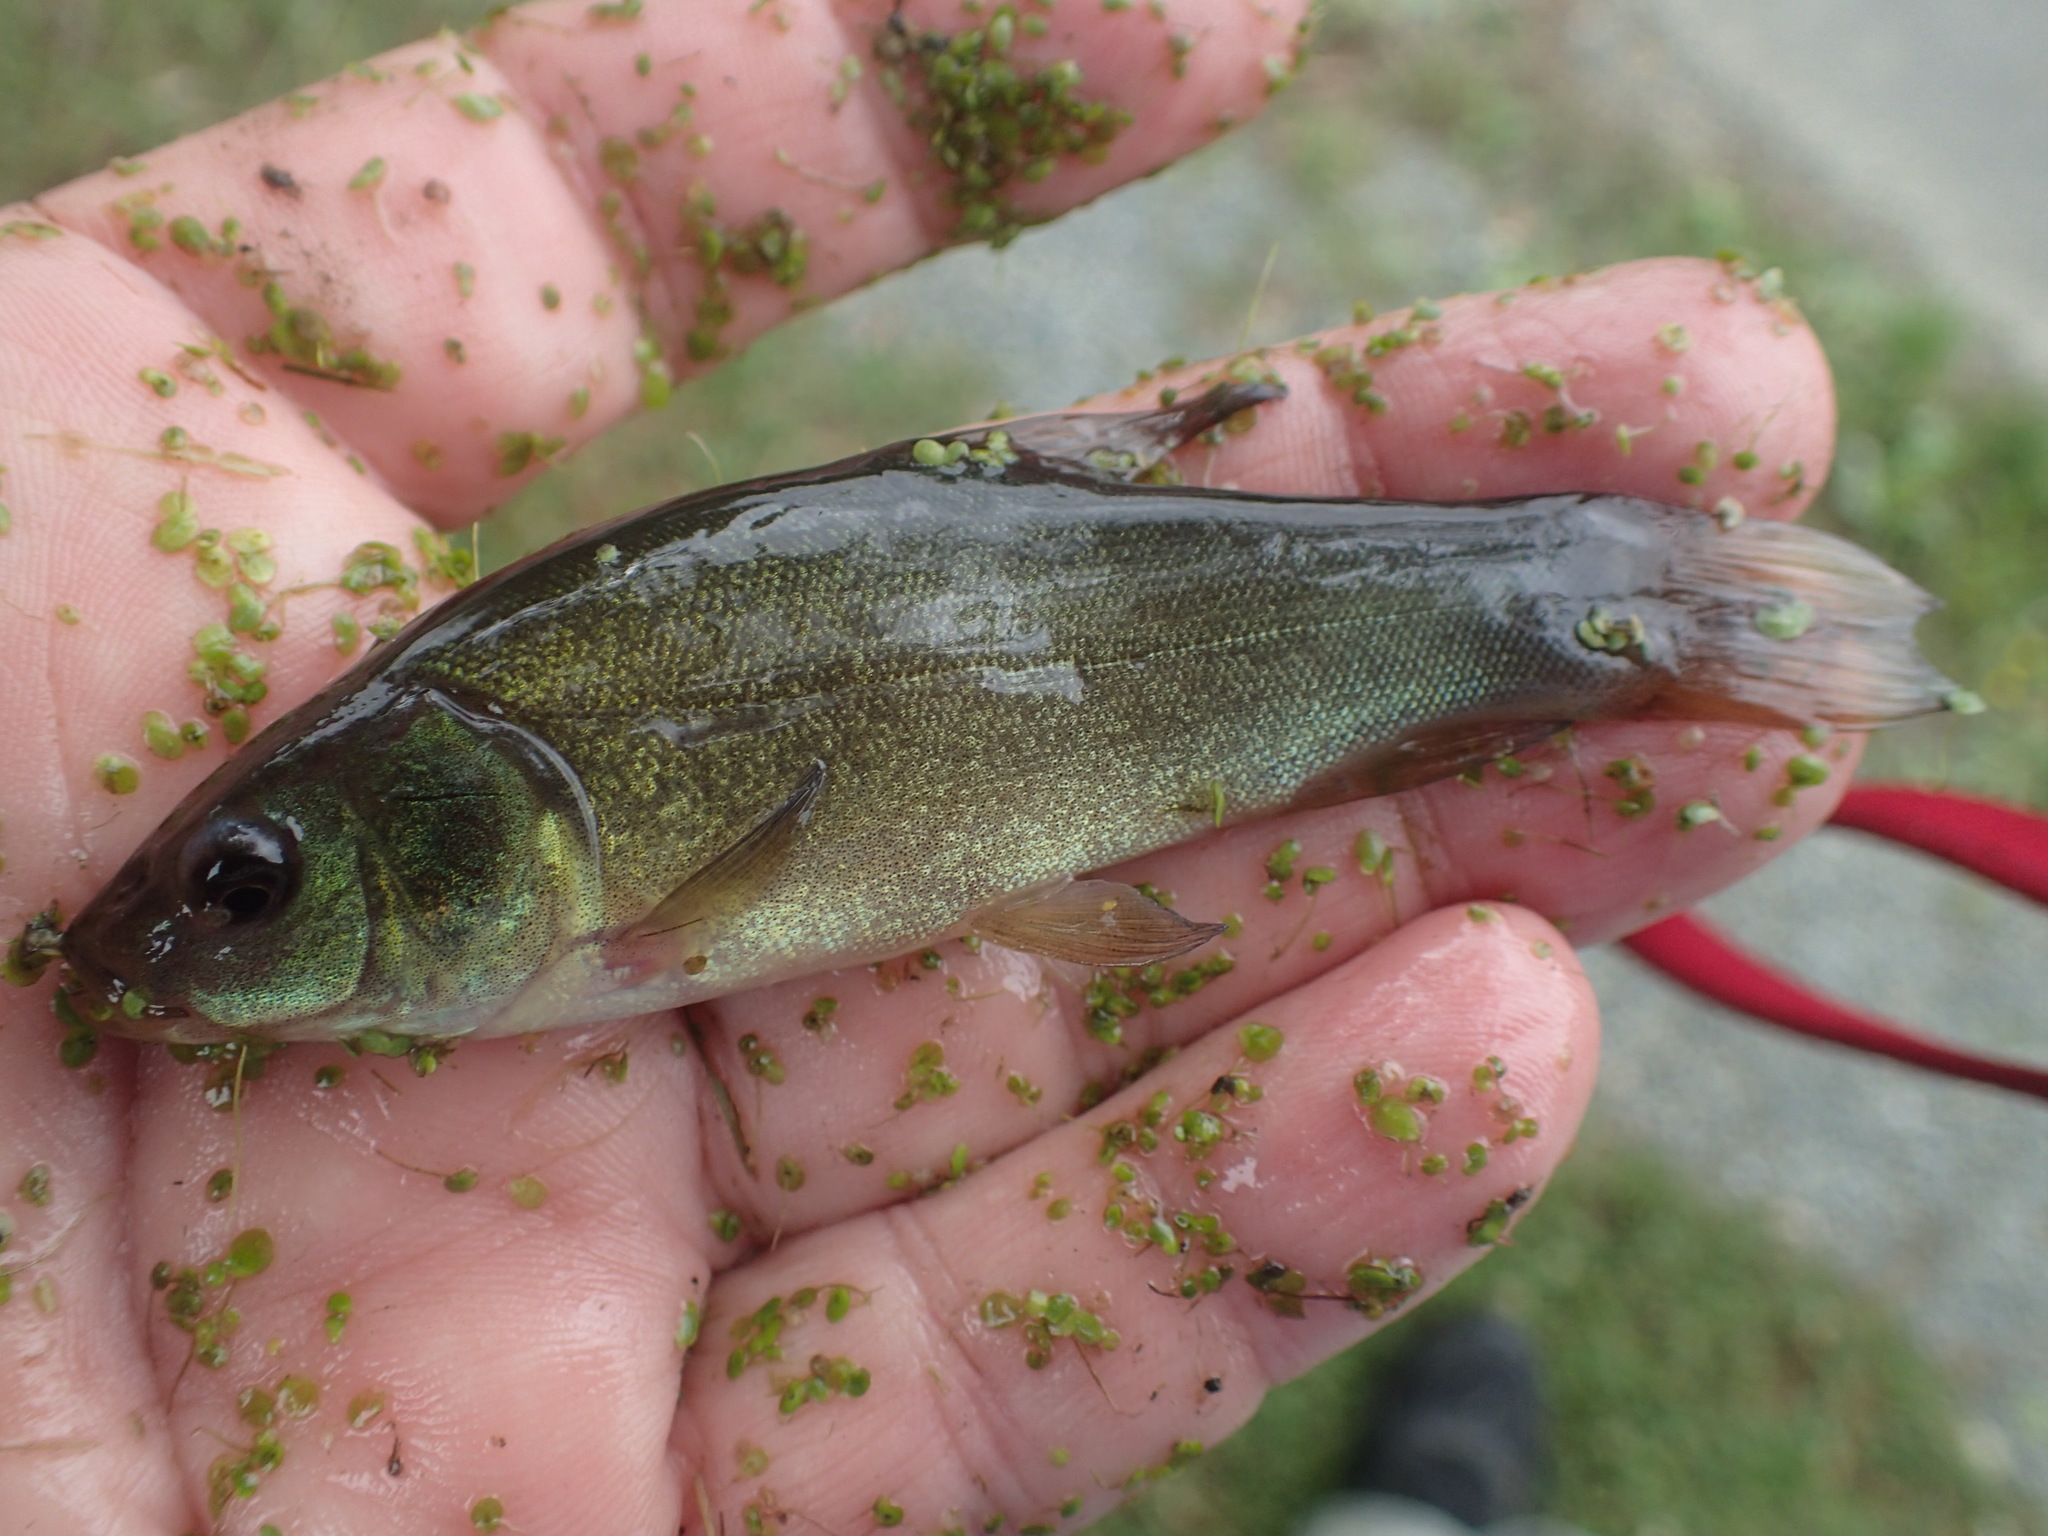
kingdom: Animalia
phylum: Chordata
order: Cypriniformes
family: Cyprinidae
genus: Tinca
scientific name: Tinca tinca
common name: Tench
